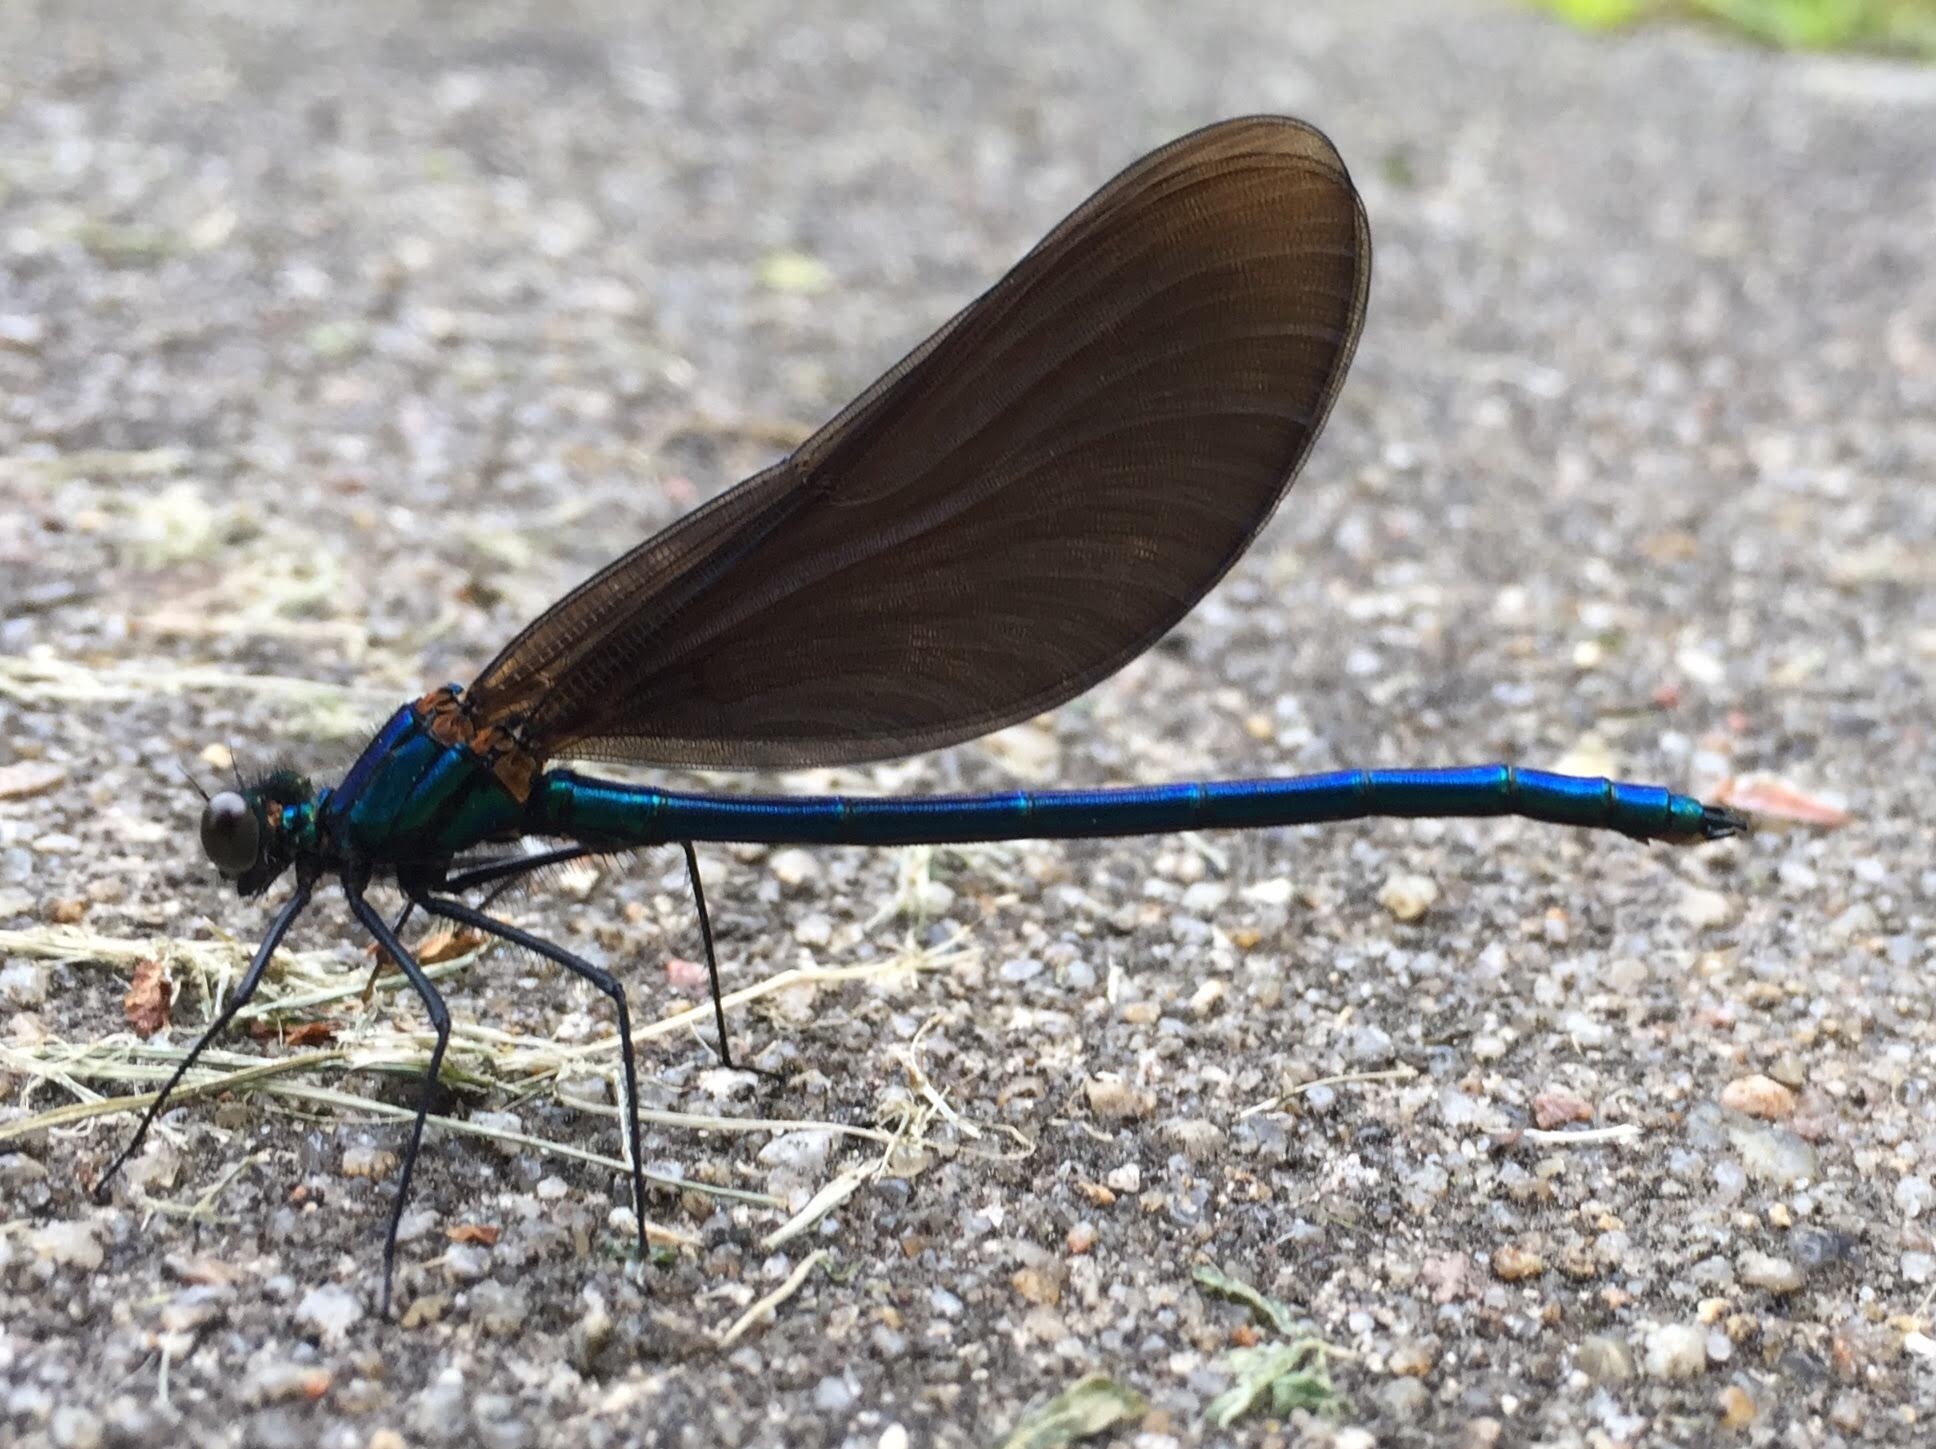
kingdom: Animalia
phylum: Arthropoda
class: Insecta
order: Odonata
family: Calopterygidae
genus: Calopteryx
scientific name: Calopteryx virgo
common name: Beautiful demoiselle
